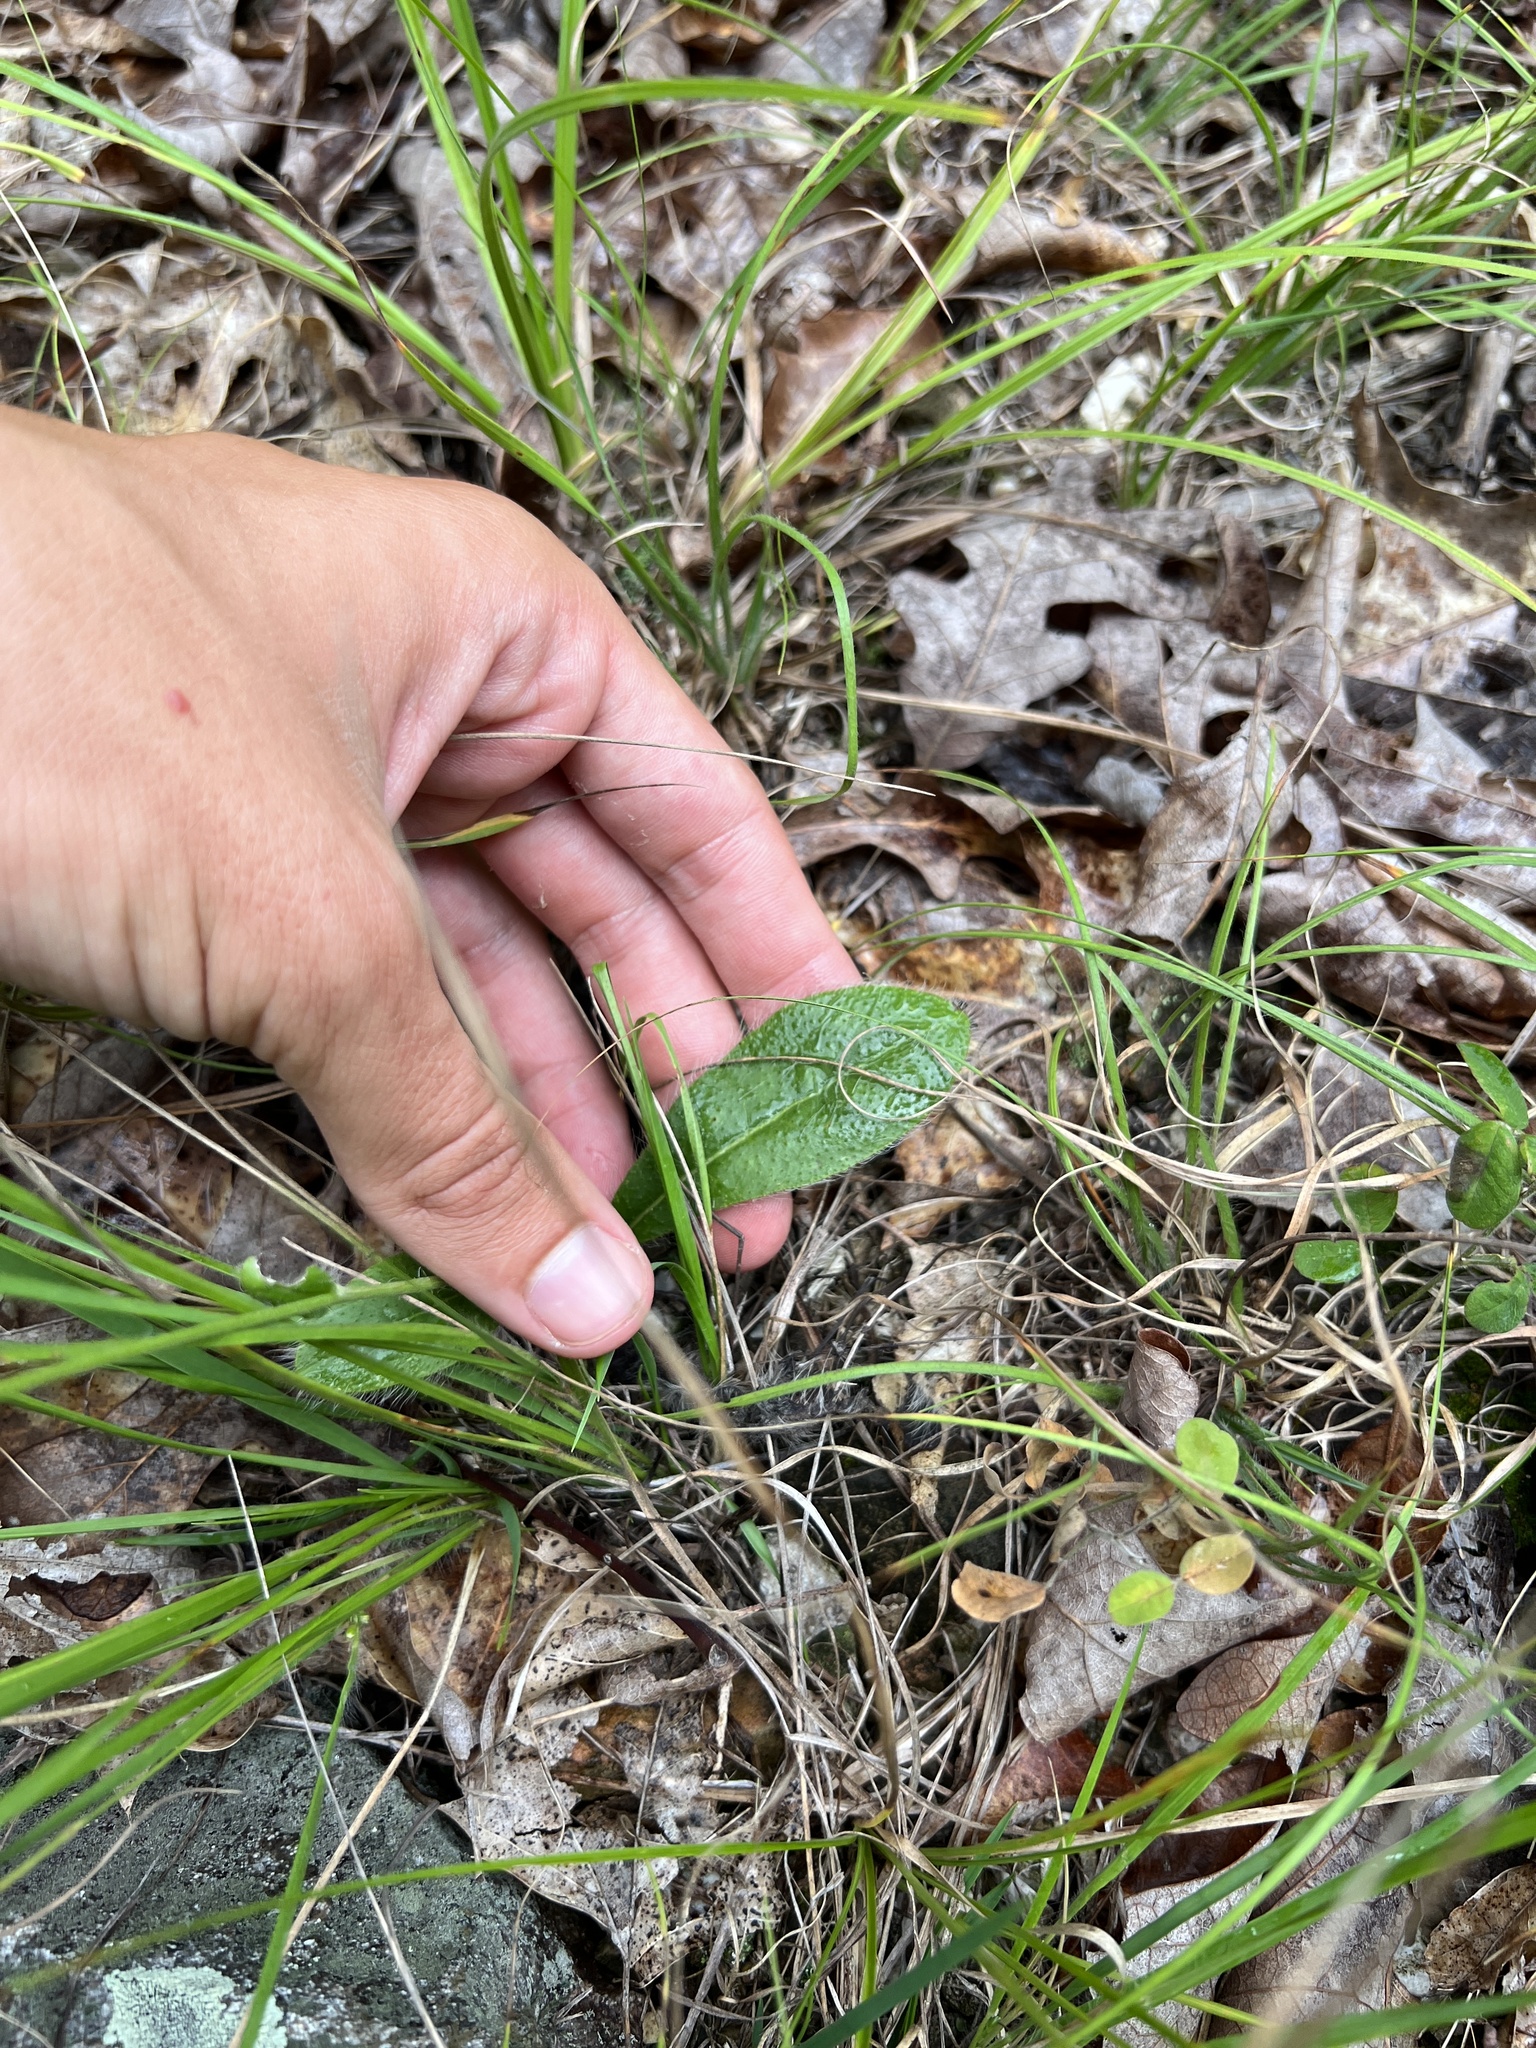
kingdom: Plantae
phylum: Tracheophyta
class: Magnoliopsida
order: Asterales
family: Asteraceae
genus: Hieracium
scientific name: Hieracium gronovii
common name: Beaked hawkweed
